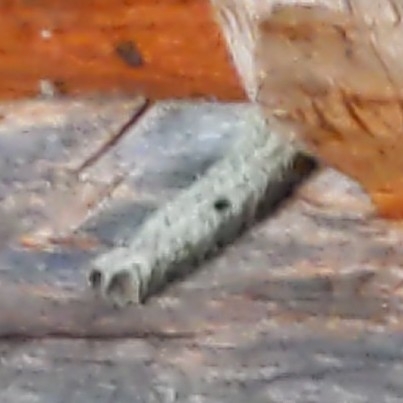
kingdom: Animalia
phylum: Arthropoda
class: Insecta
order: Hymenoptera
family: Crabronidae
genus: Trypoxylon
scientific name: Trypoxylon politum
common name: Organ-pipe mud-dauber wasp
